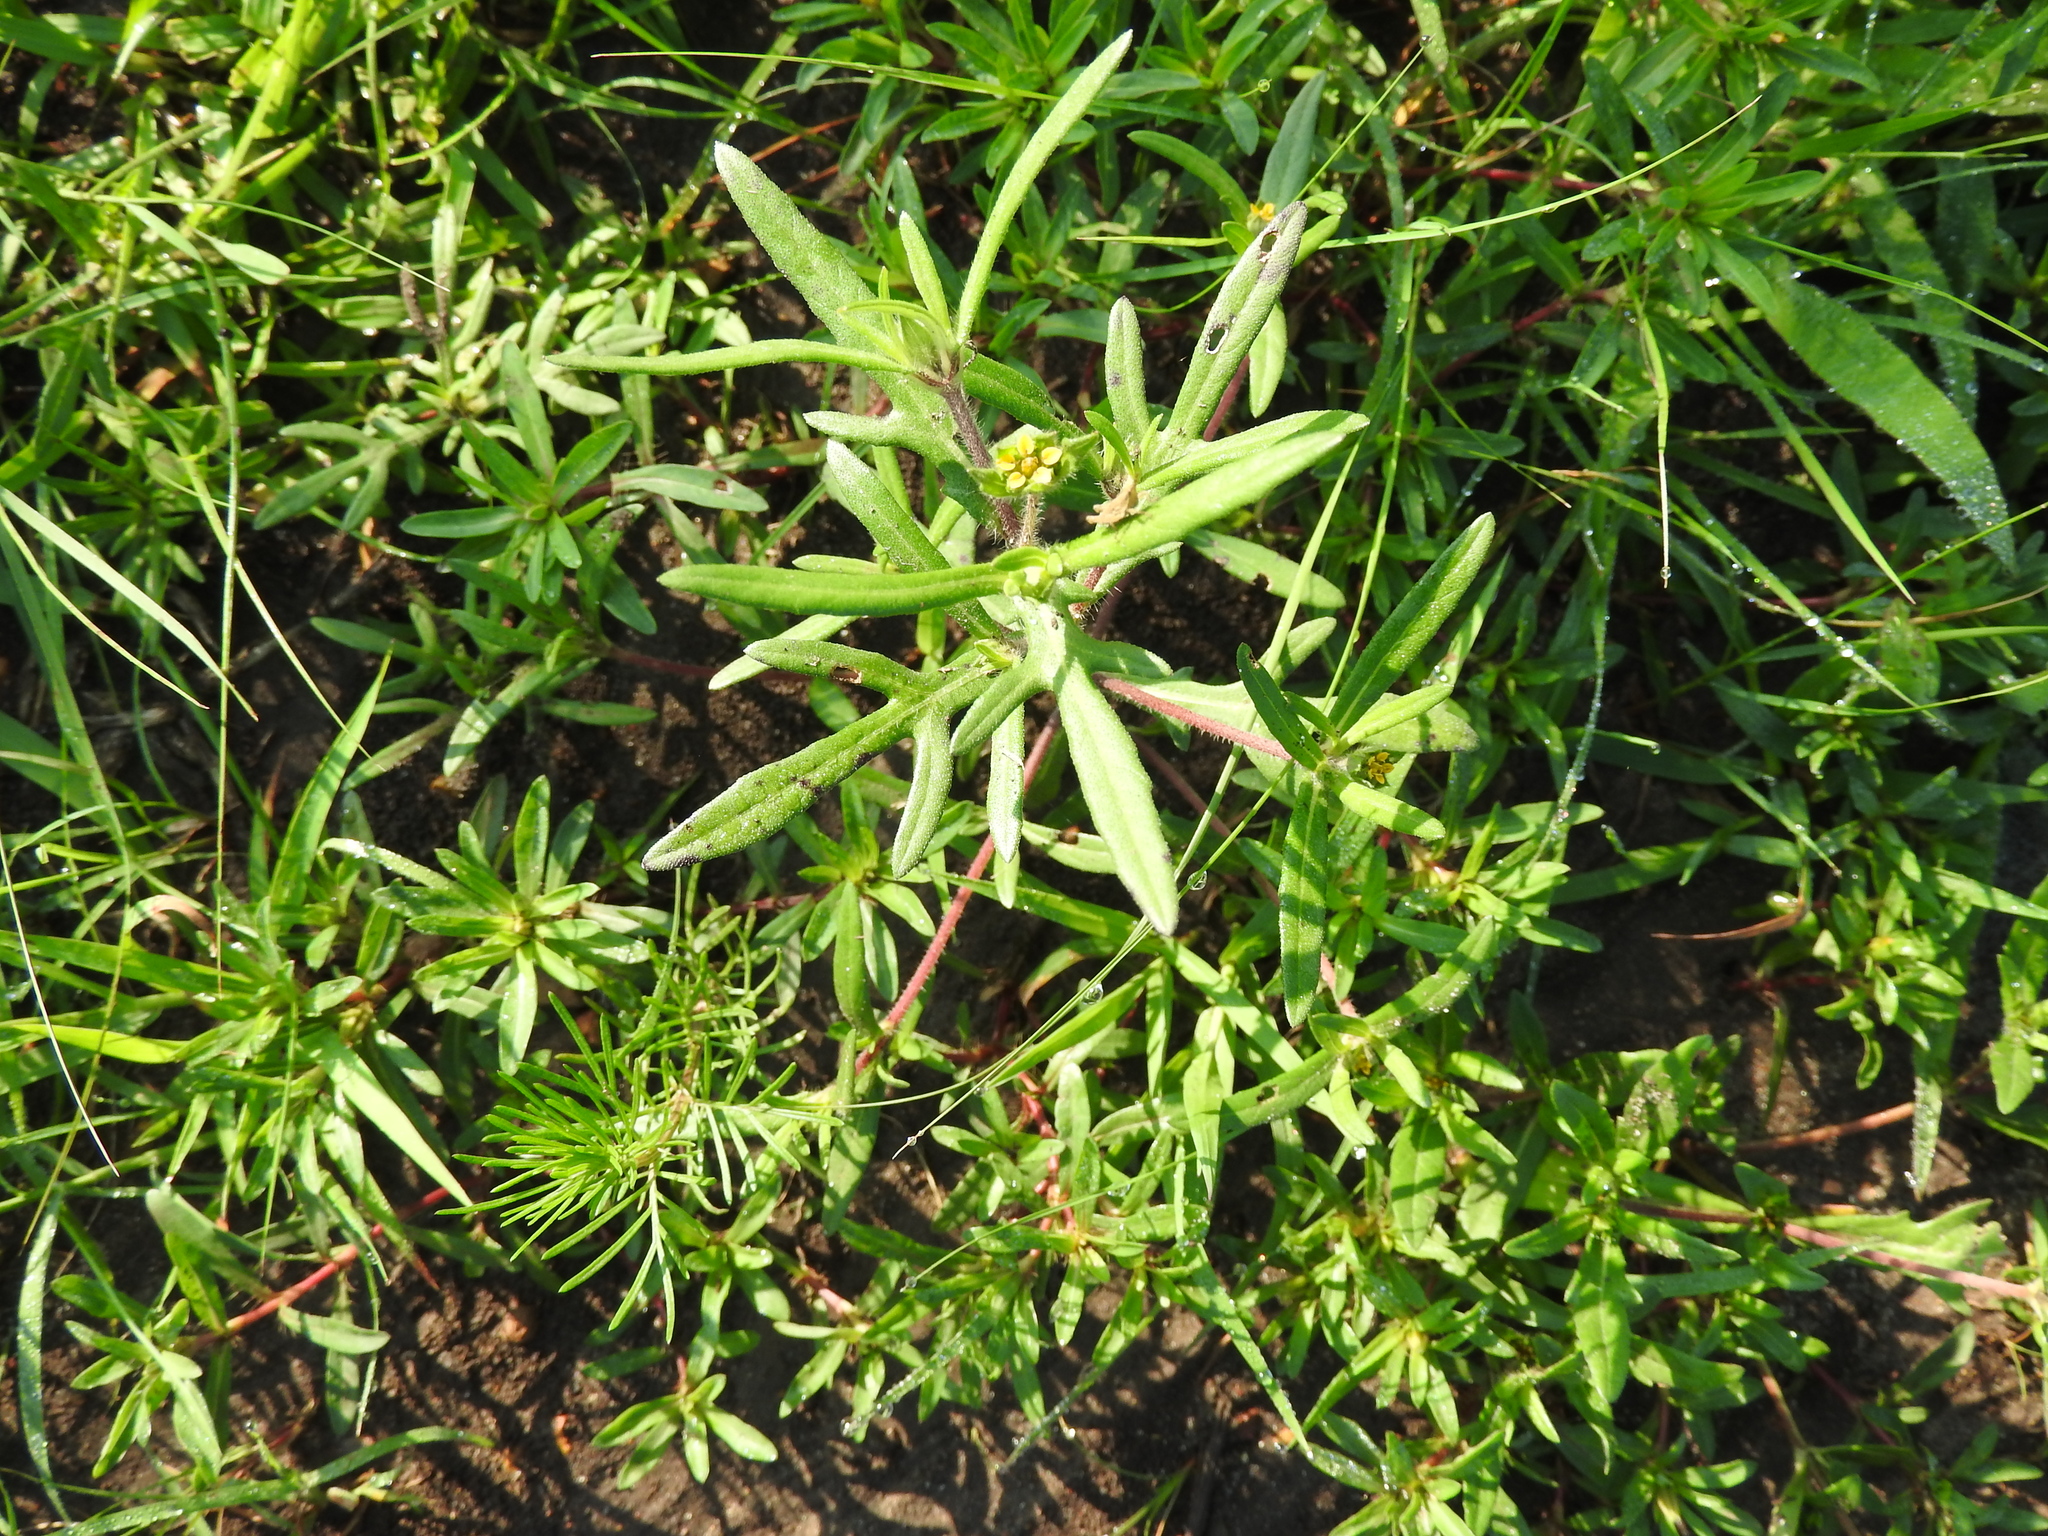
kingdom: Plantae
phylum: Tracheophyta
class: Magnoliopsida
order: Asterales
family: Asteraceae
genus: Melampodium
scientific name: Melampodium sericeum
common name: Rough blackfoot
